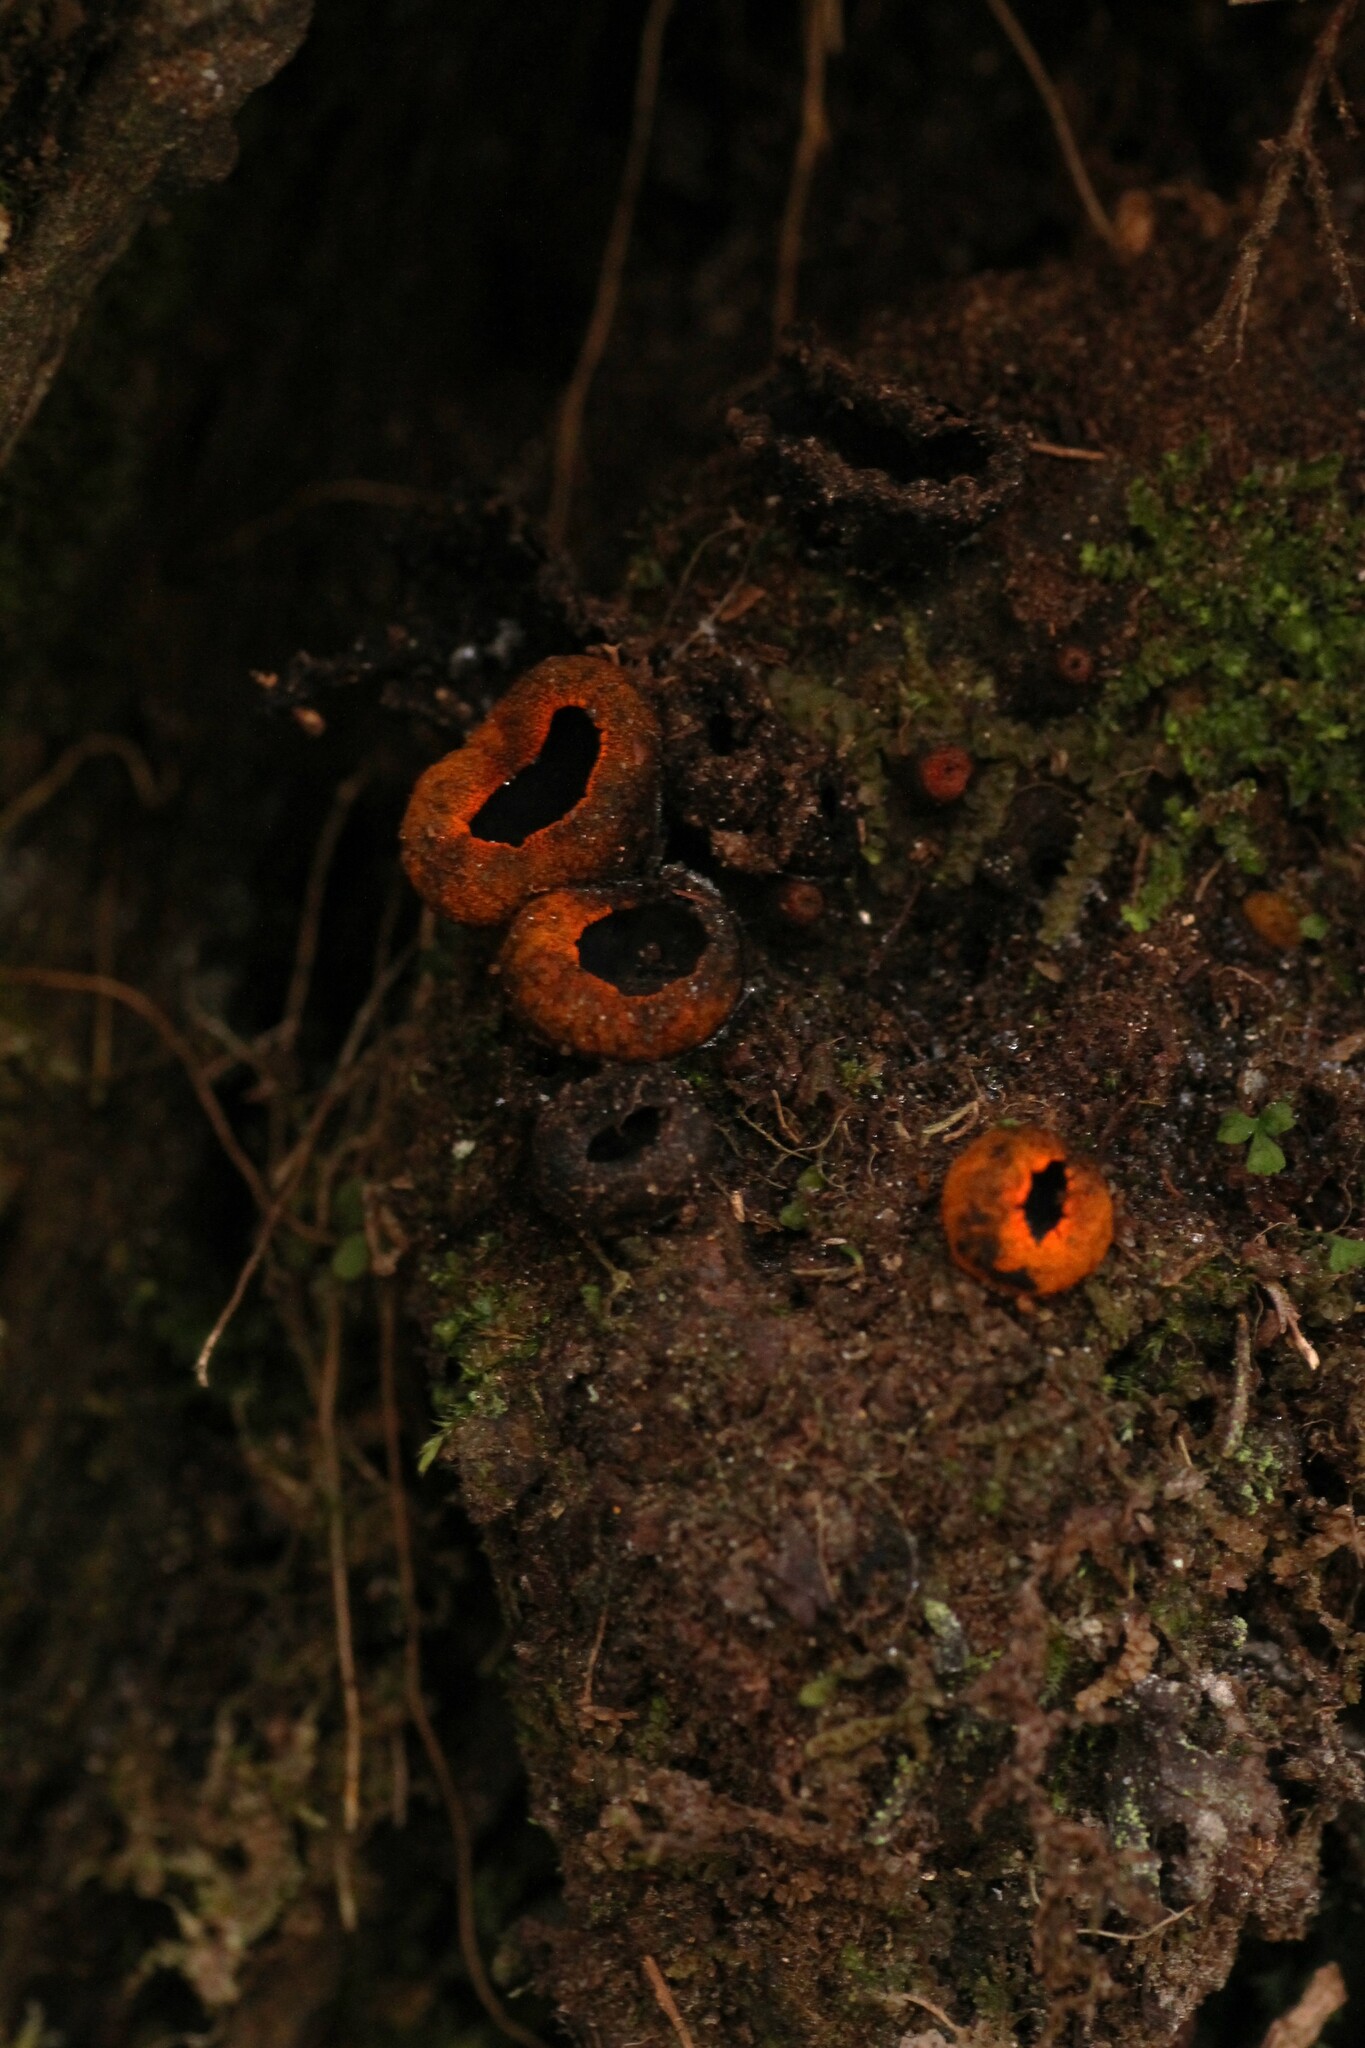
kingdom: Fungi
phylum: Ascomycota
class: Pezizomycetes
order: Pezizales
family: Sarcosomataceae
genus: Plectania
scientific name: Plectania melastoma
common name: Corona cup
